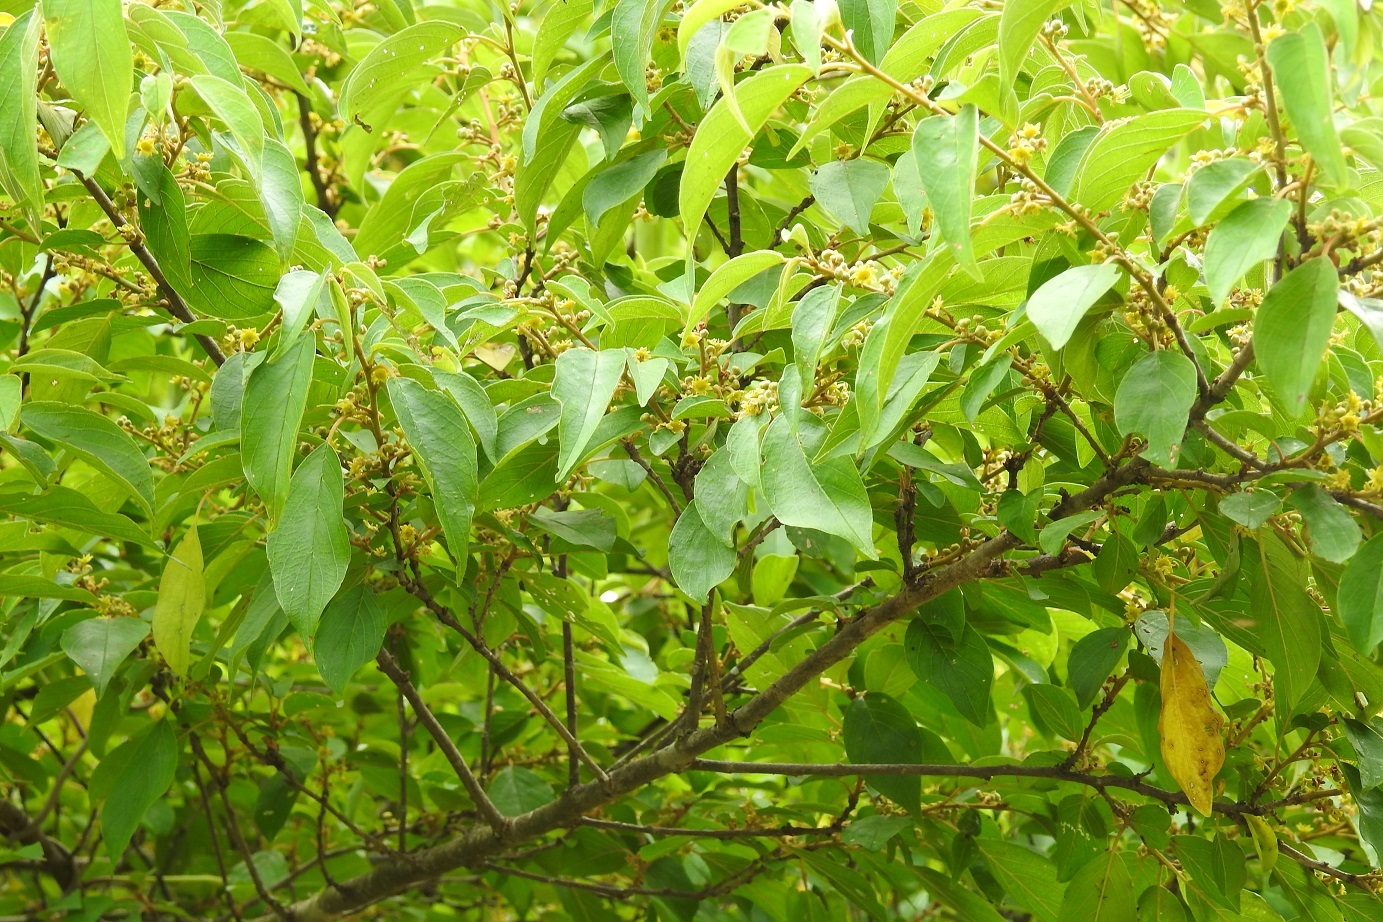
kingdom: Plantae
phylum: Tracheophyta
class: Magnoliopsida
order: Rosales
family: Rhamnaceae
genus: Colubrina
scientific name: Colubrina arborescens
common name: Wild coffee
